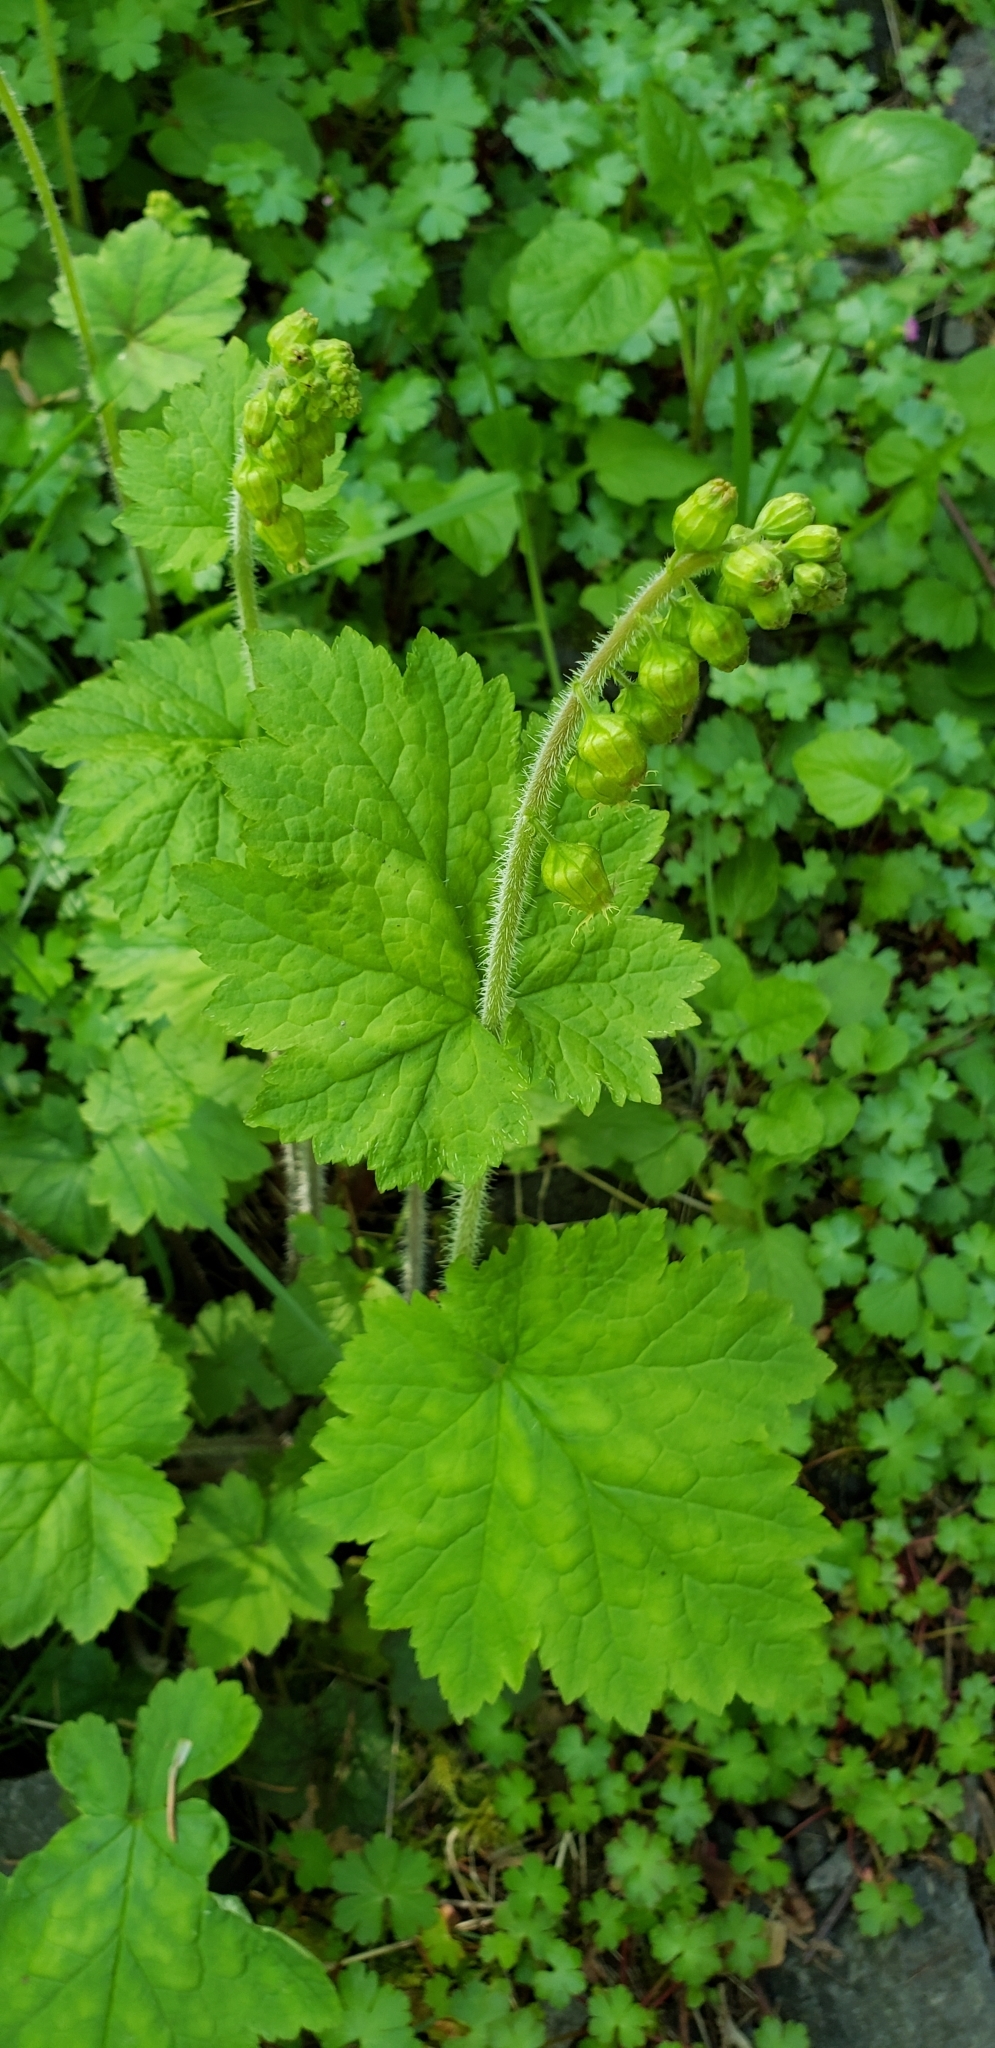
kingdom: Plantae
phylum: Tracheophyta
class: Magnoliopsida
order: Saxifragales
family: Saxifragaceae
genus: Tellima
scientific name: Tellima grandiflora
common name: Fringecups
